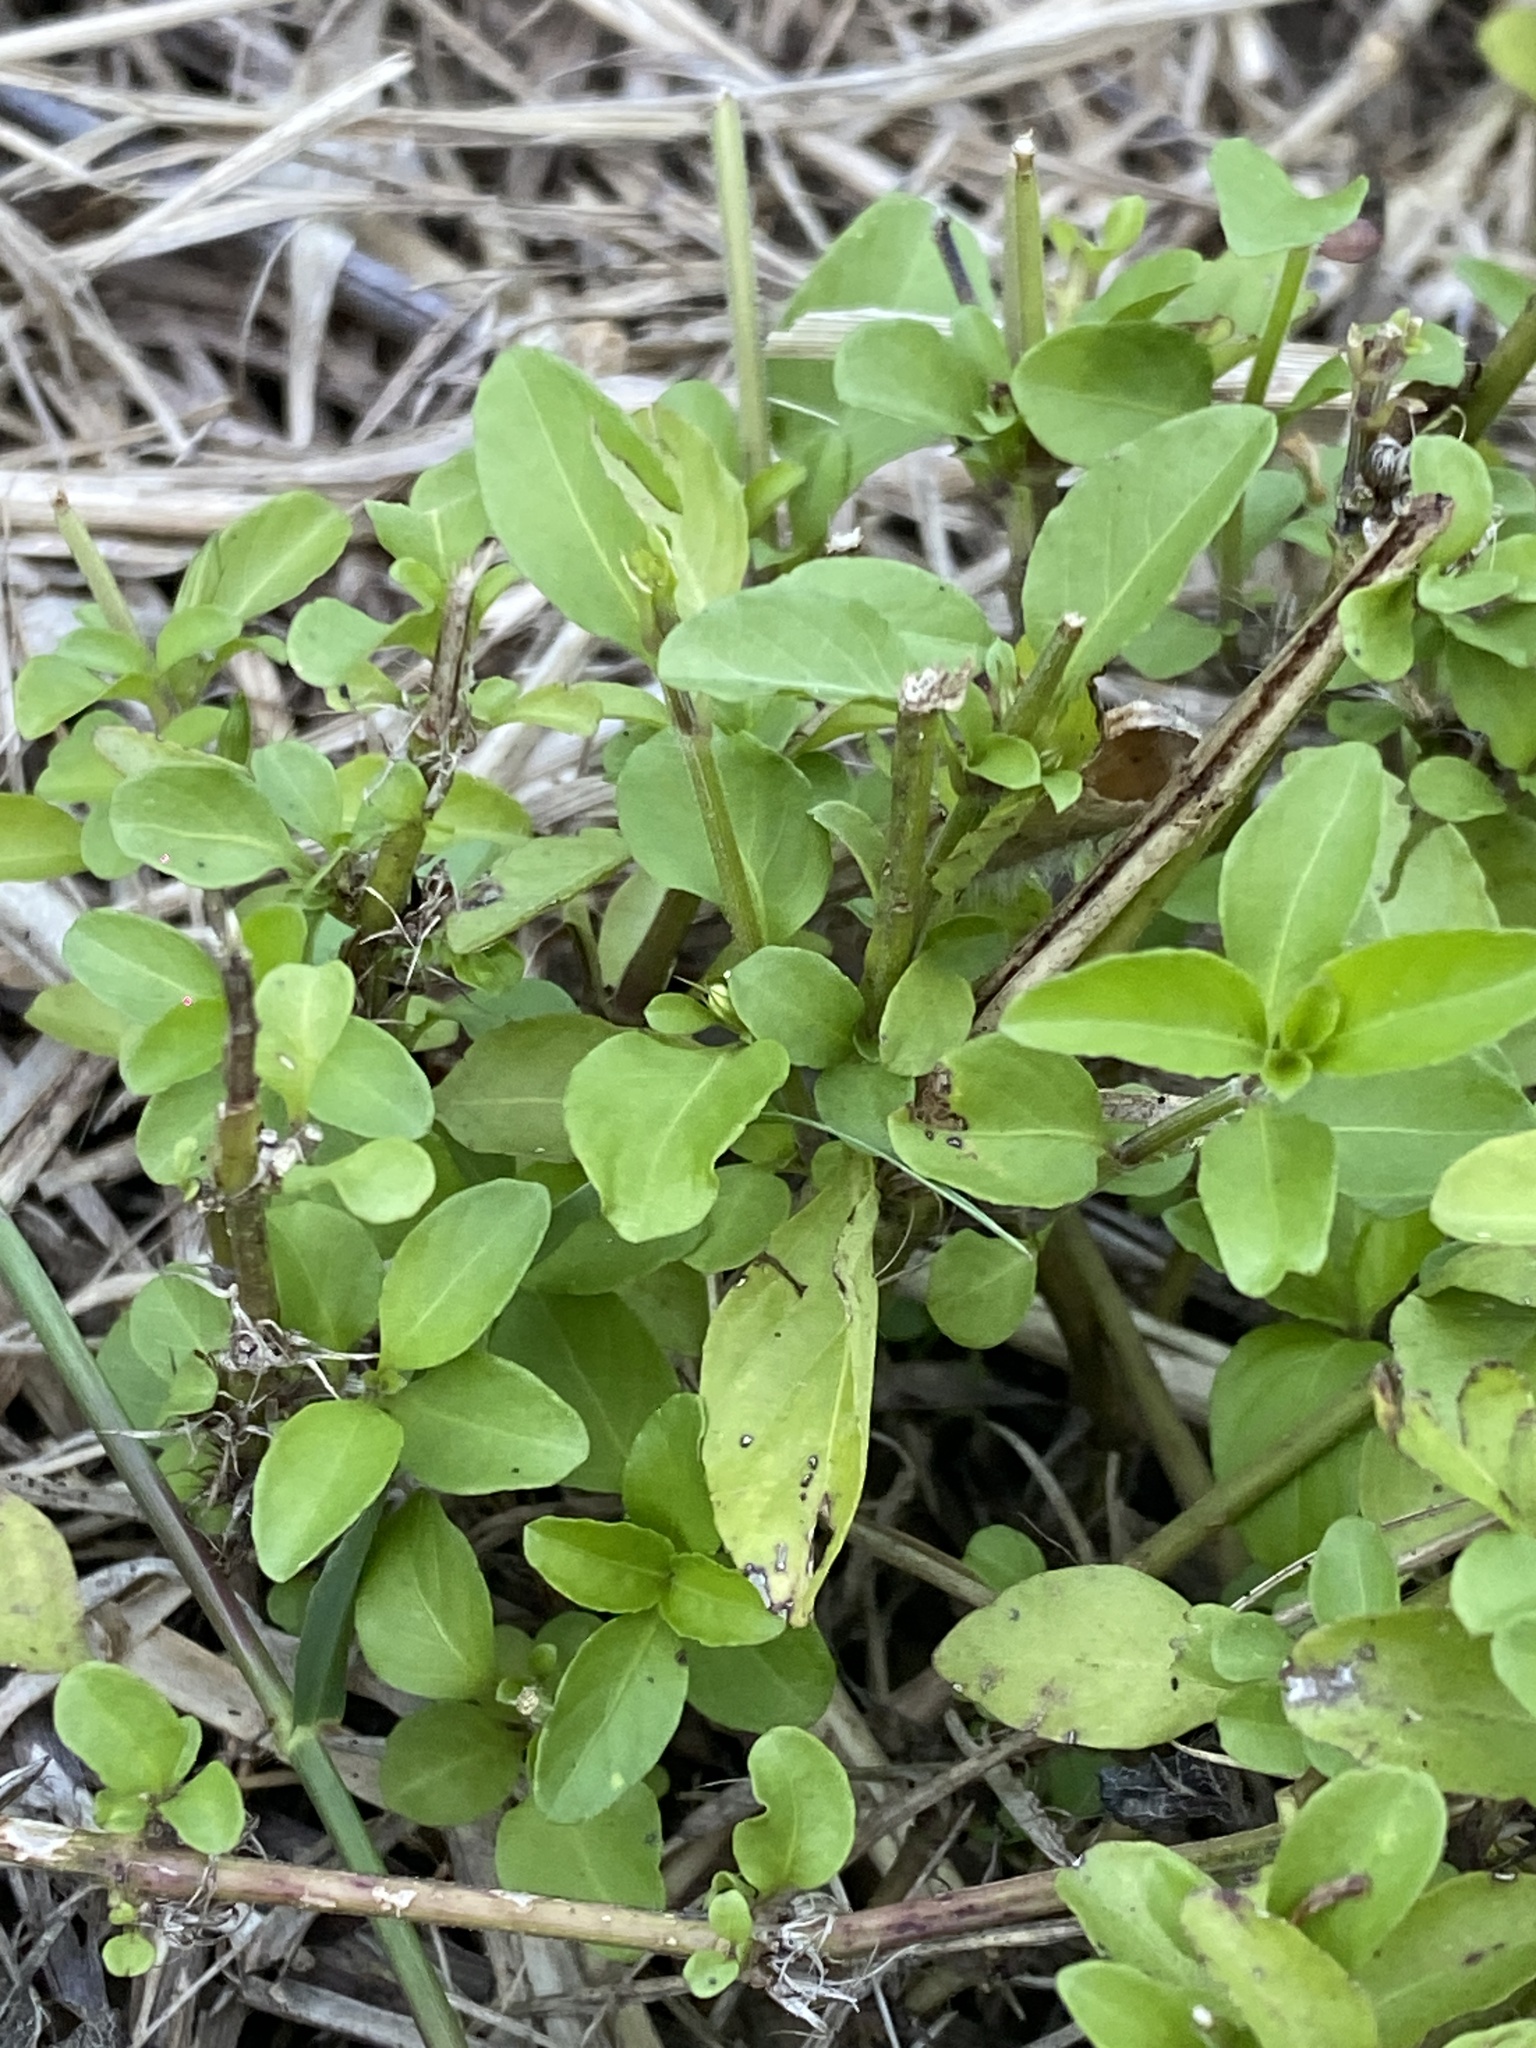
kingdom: Plantae
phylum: Tracheophyta
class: Magnoliopsida
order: Lamiales
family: Acanthaceae
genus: Hygrophila
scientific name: Hygrophila erecta
